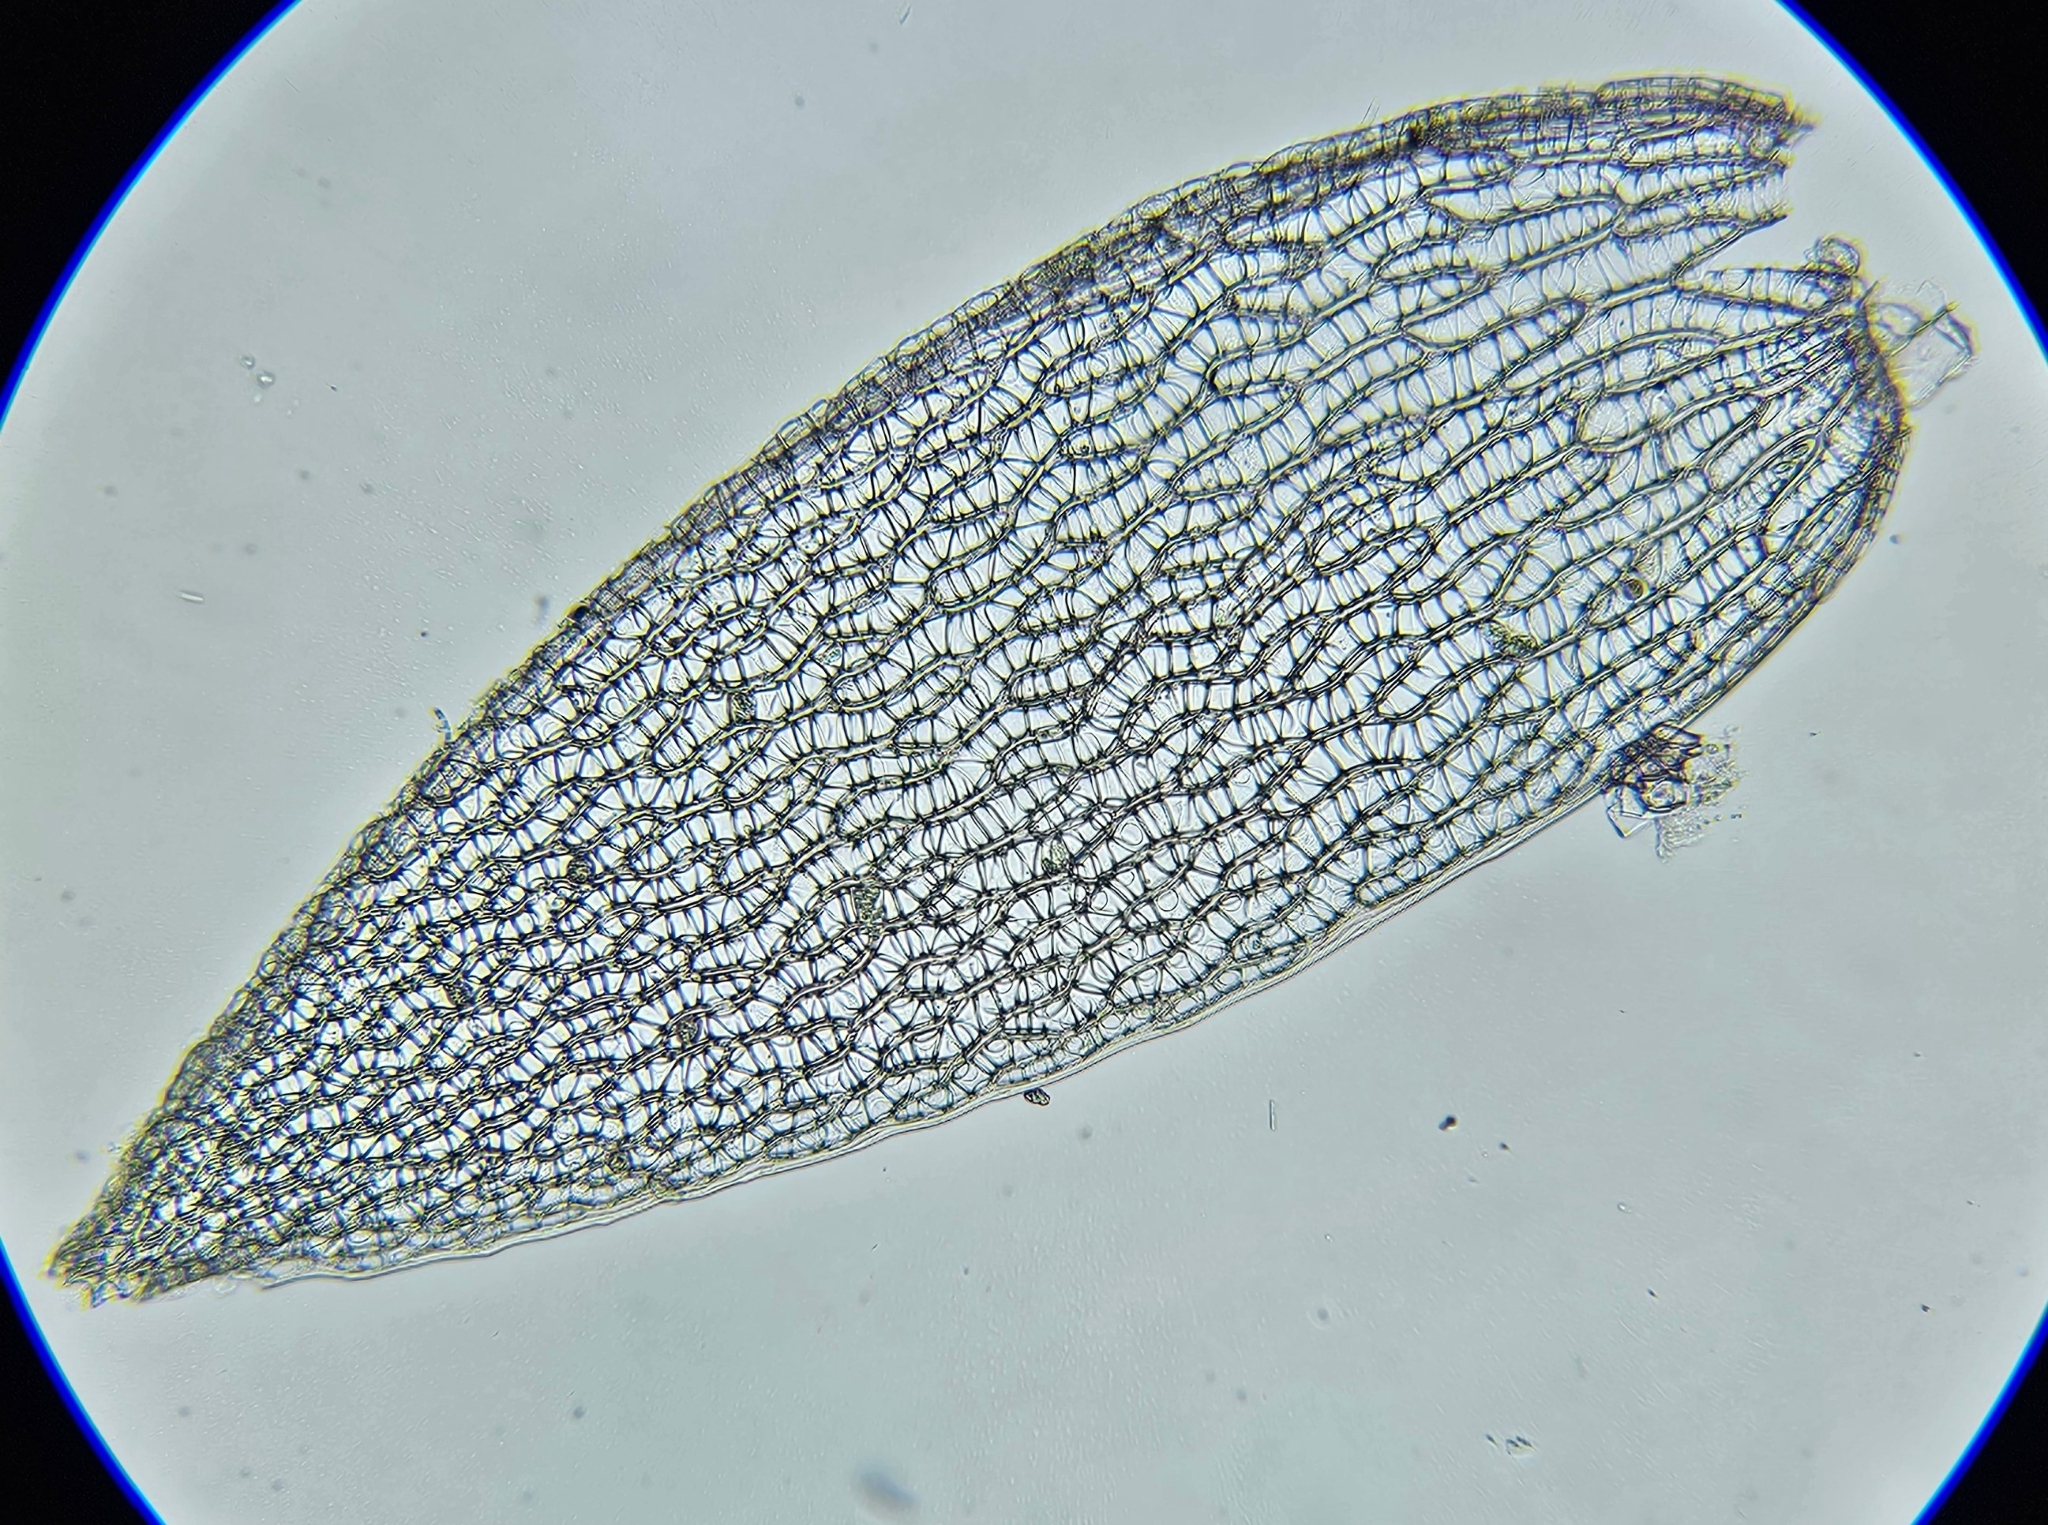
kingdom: Plantae
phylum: Bryophyta
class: Sphagnopsida
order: Sphagnales
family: Sphagnaceae
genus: Sphagnum
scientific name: Sphagnum quinquefarium
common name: Five-ranked peat moss
